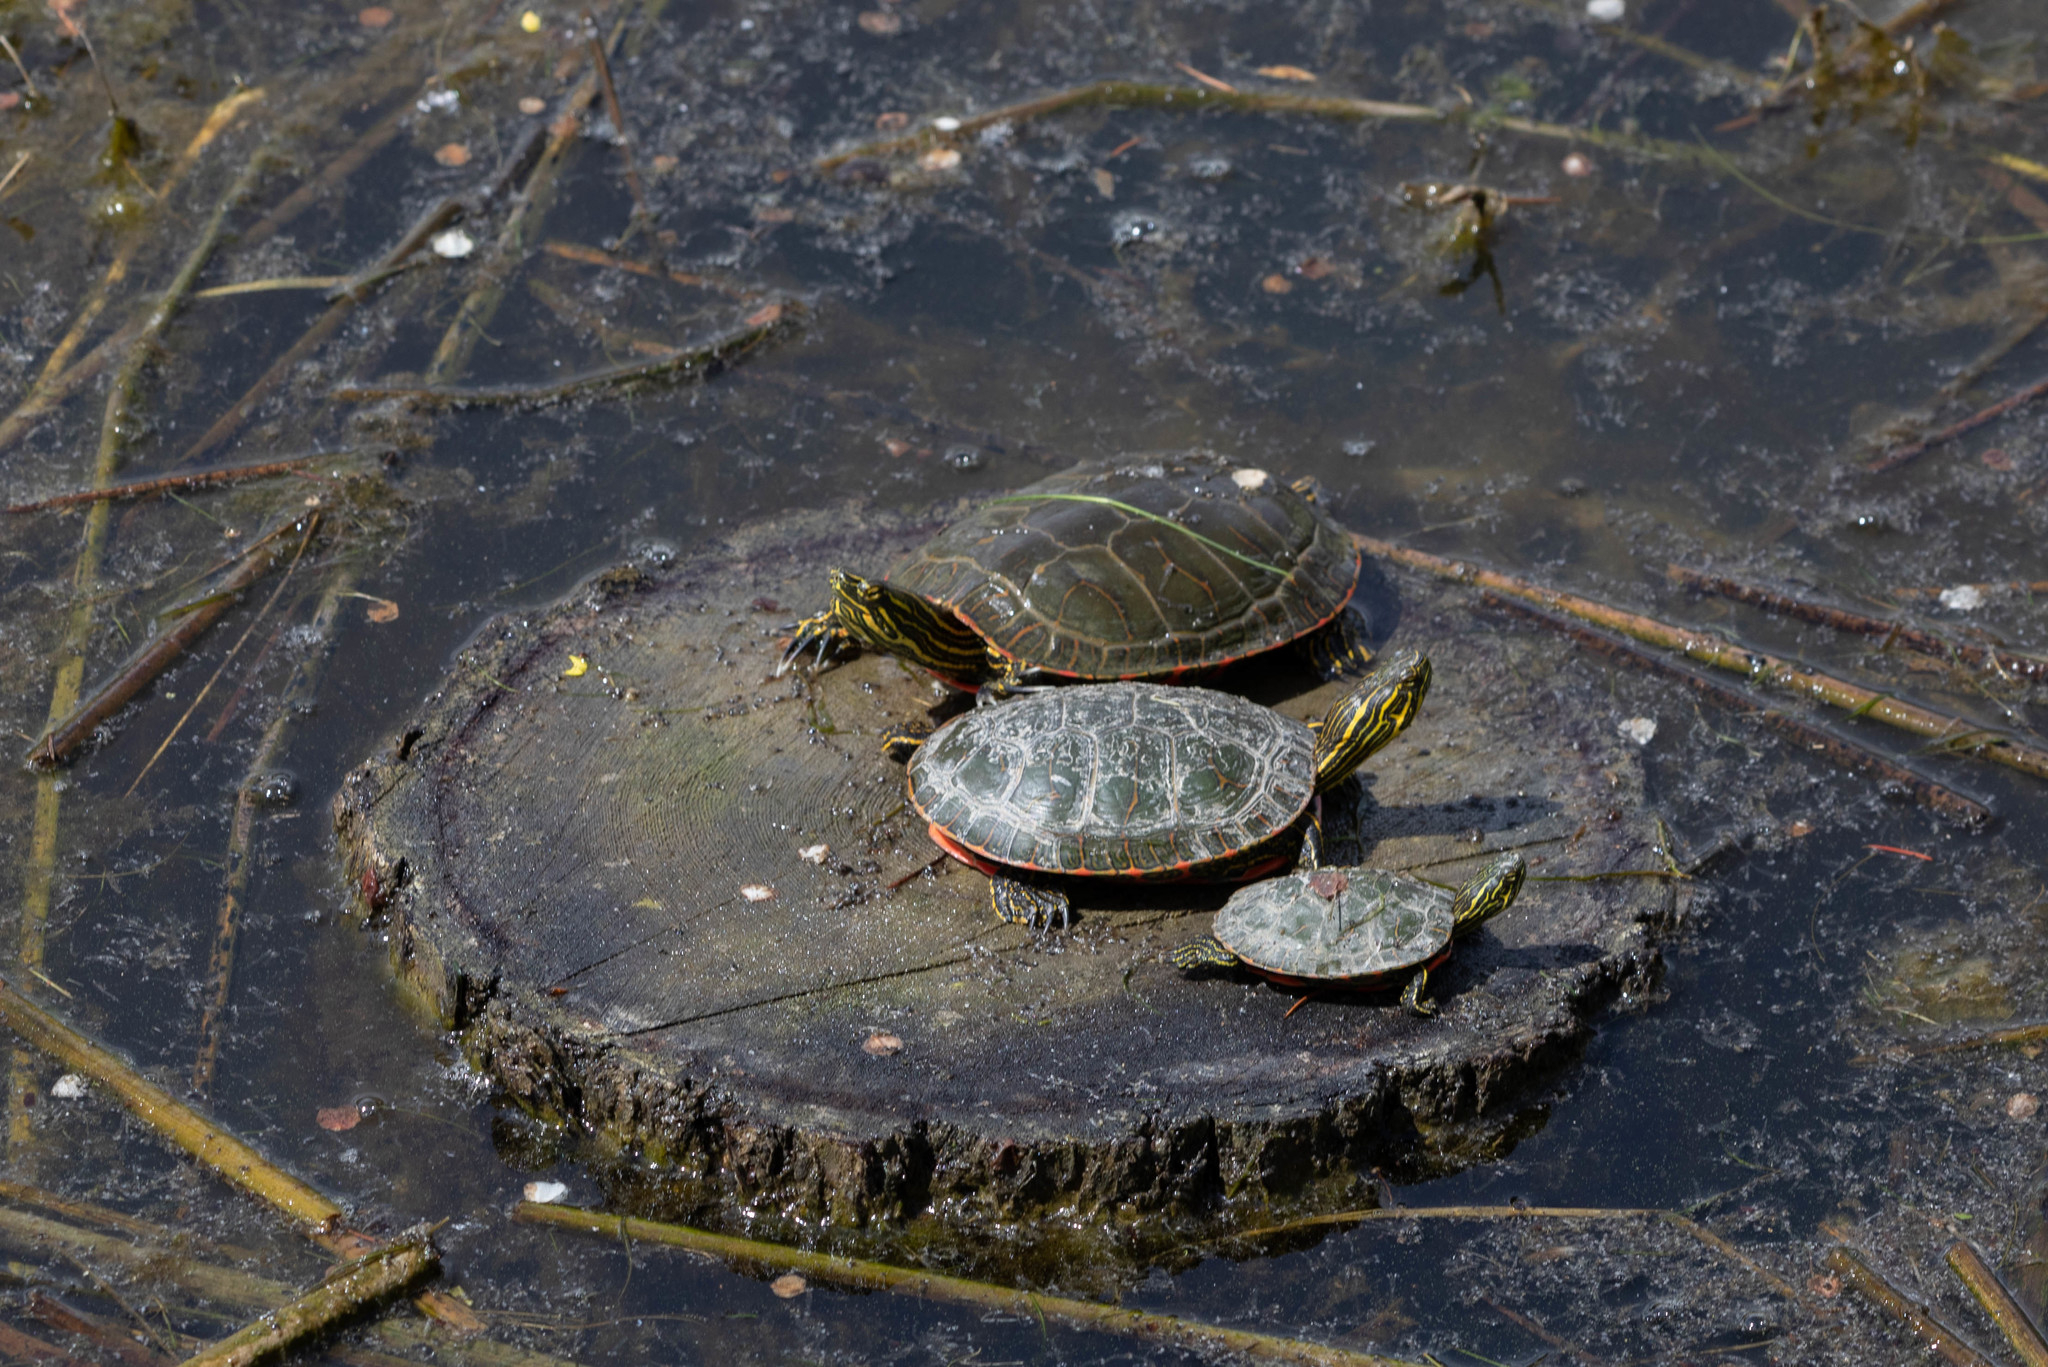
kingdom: Animalia
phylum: Chordata
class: Testudines
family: Emydidae
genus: Chrysemys
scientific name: Chrysemys picta
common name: Painted turtle
